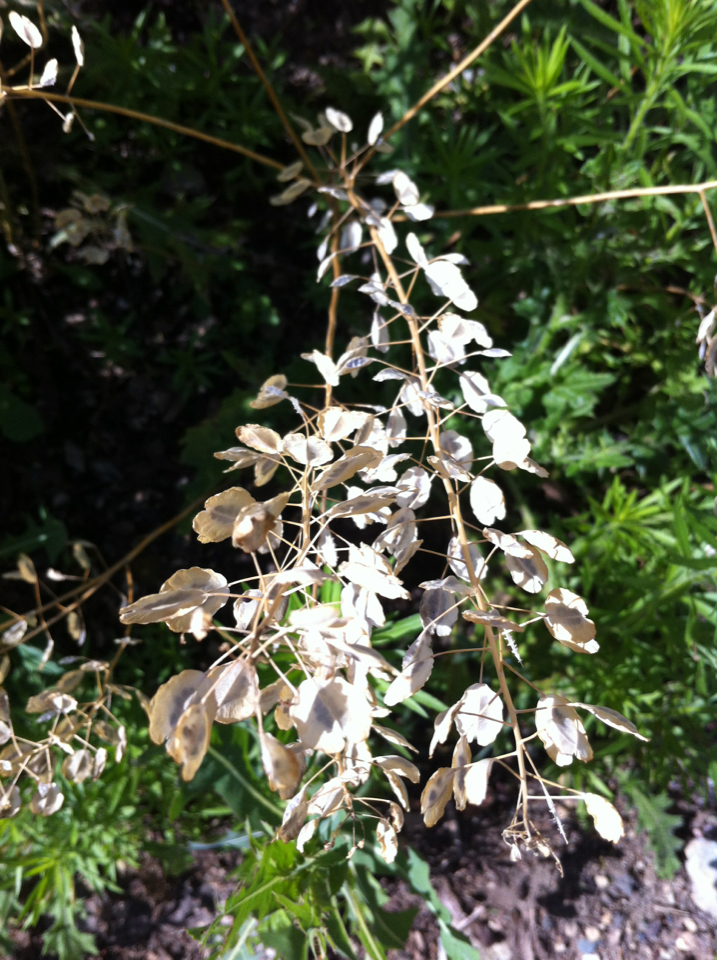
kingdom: Plantae
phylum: Tracheophyta
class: Magnoliopsida
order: Brassicales
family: Brassicaceae
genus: Thlaspi
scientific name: Thlaspi arvense
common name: Field pennycress
